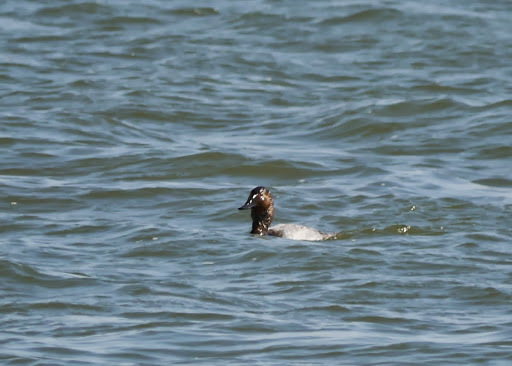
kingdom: Animalia
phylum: Chordata
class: Aves
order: Anseriformes
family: Anatidae
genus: Aythya
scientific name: Aythya valisineria
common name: Canvasback
